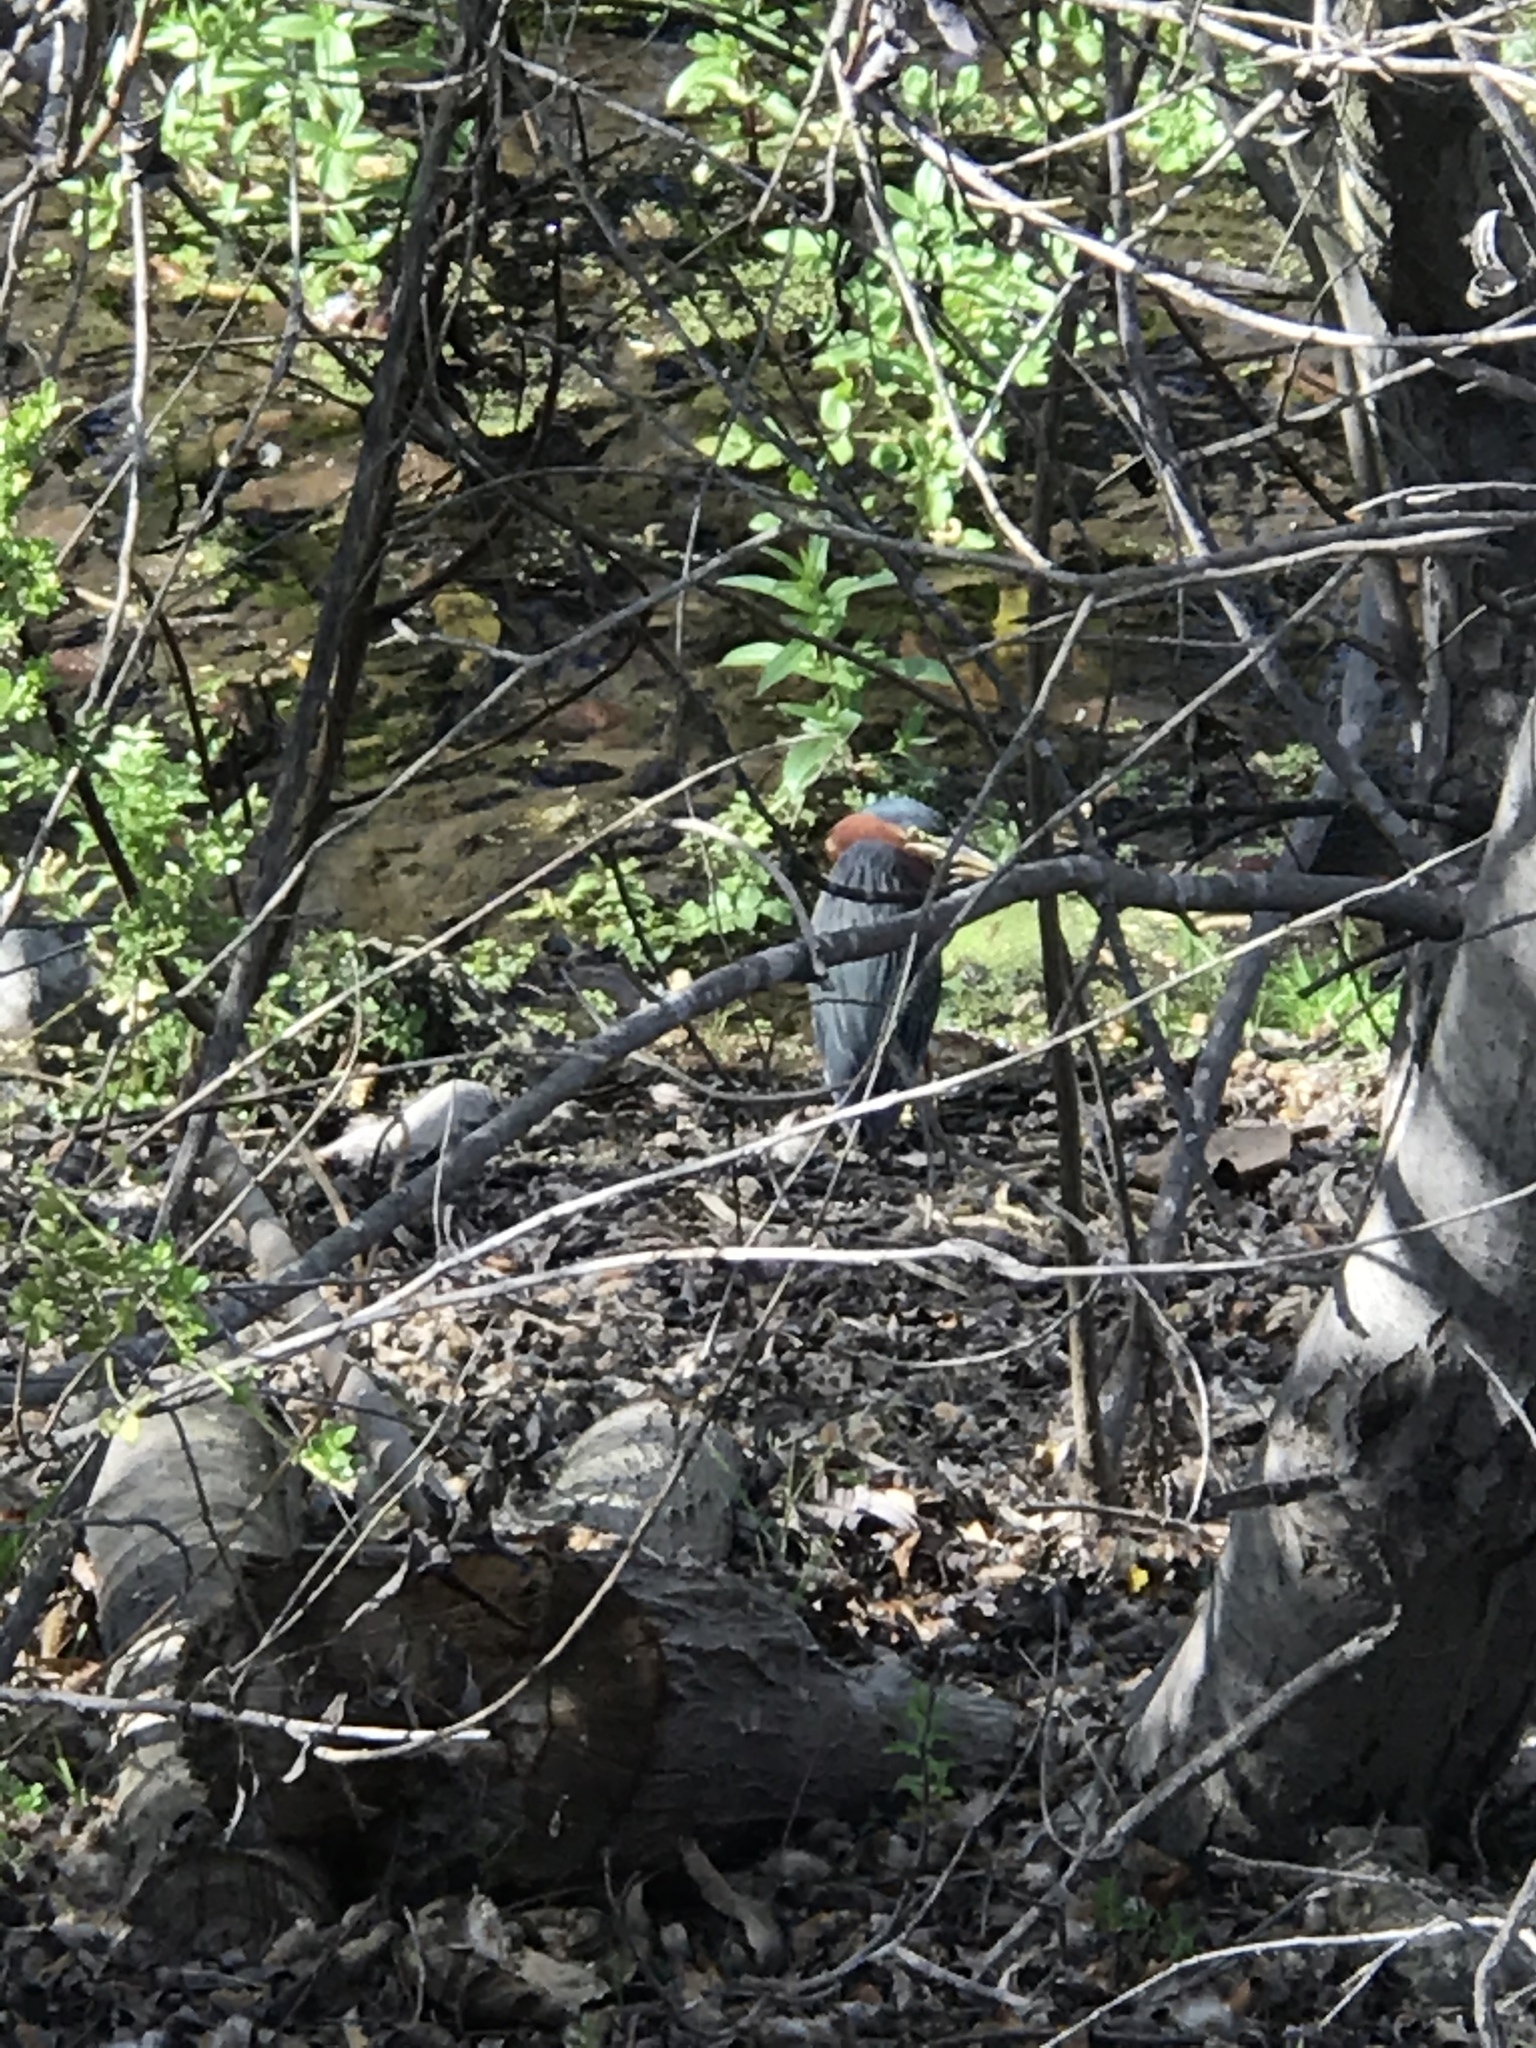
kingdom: Animalia
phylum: Chordata
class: Aves
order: Pelecaniformes
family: Ardeidae
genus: Butorides
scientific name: Butorides virescens
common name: Green heron
